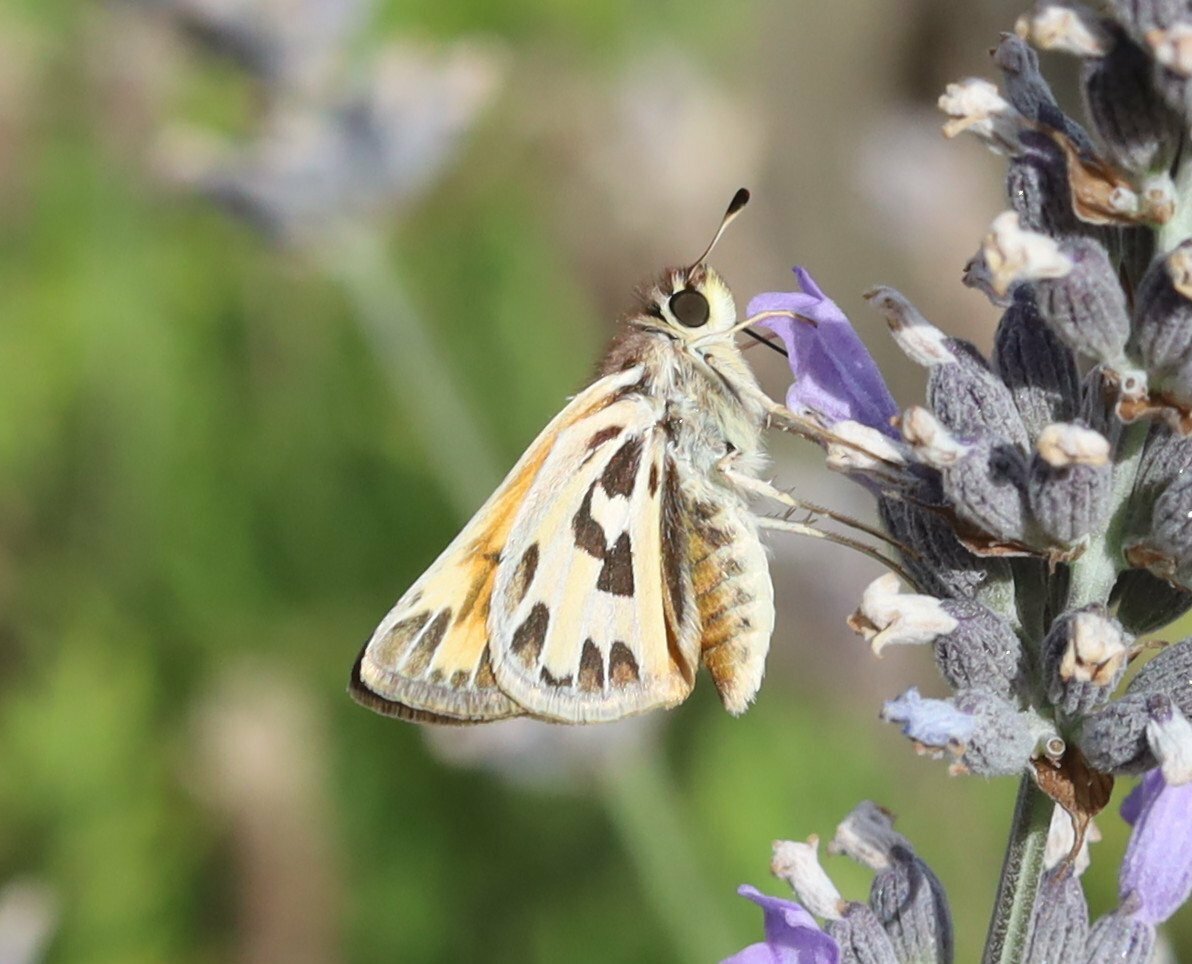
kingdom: Animalia
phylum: Arthropoda
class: Insecta
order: Lepidoptera
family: Hesperiidae
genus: Hylephila
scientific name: Hylephila fasciolata
